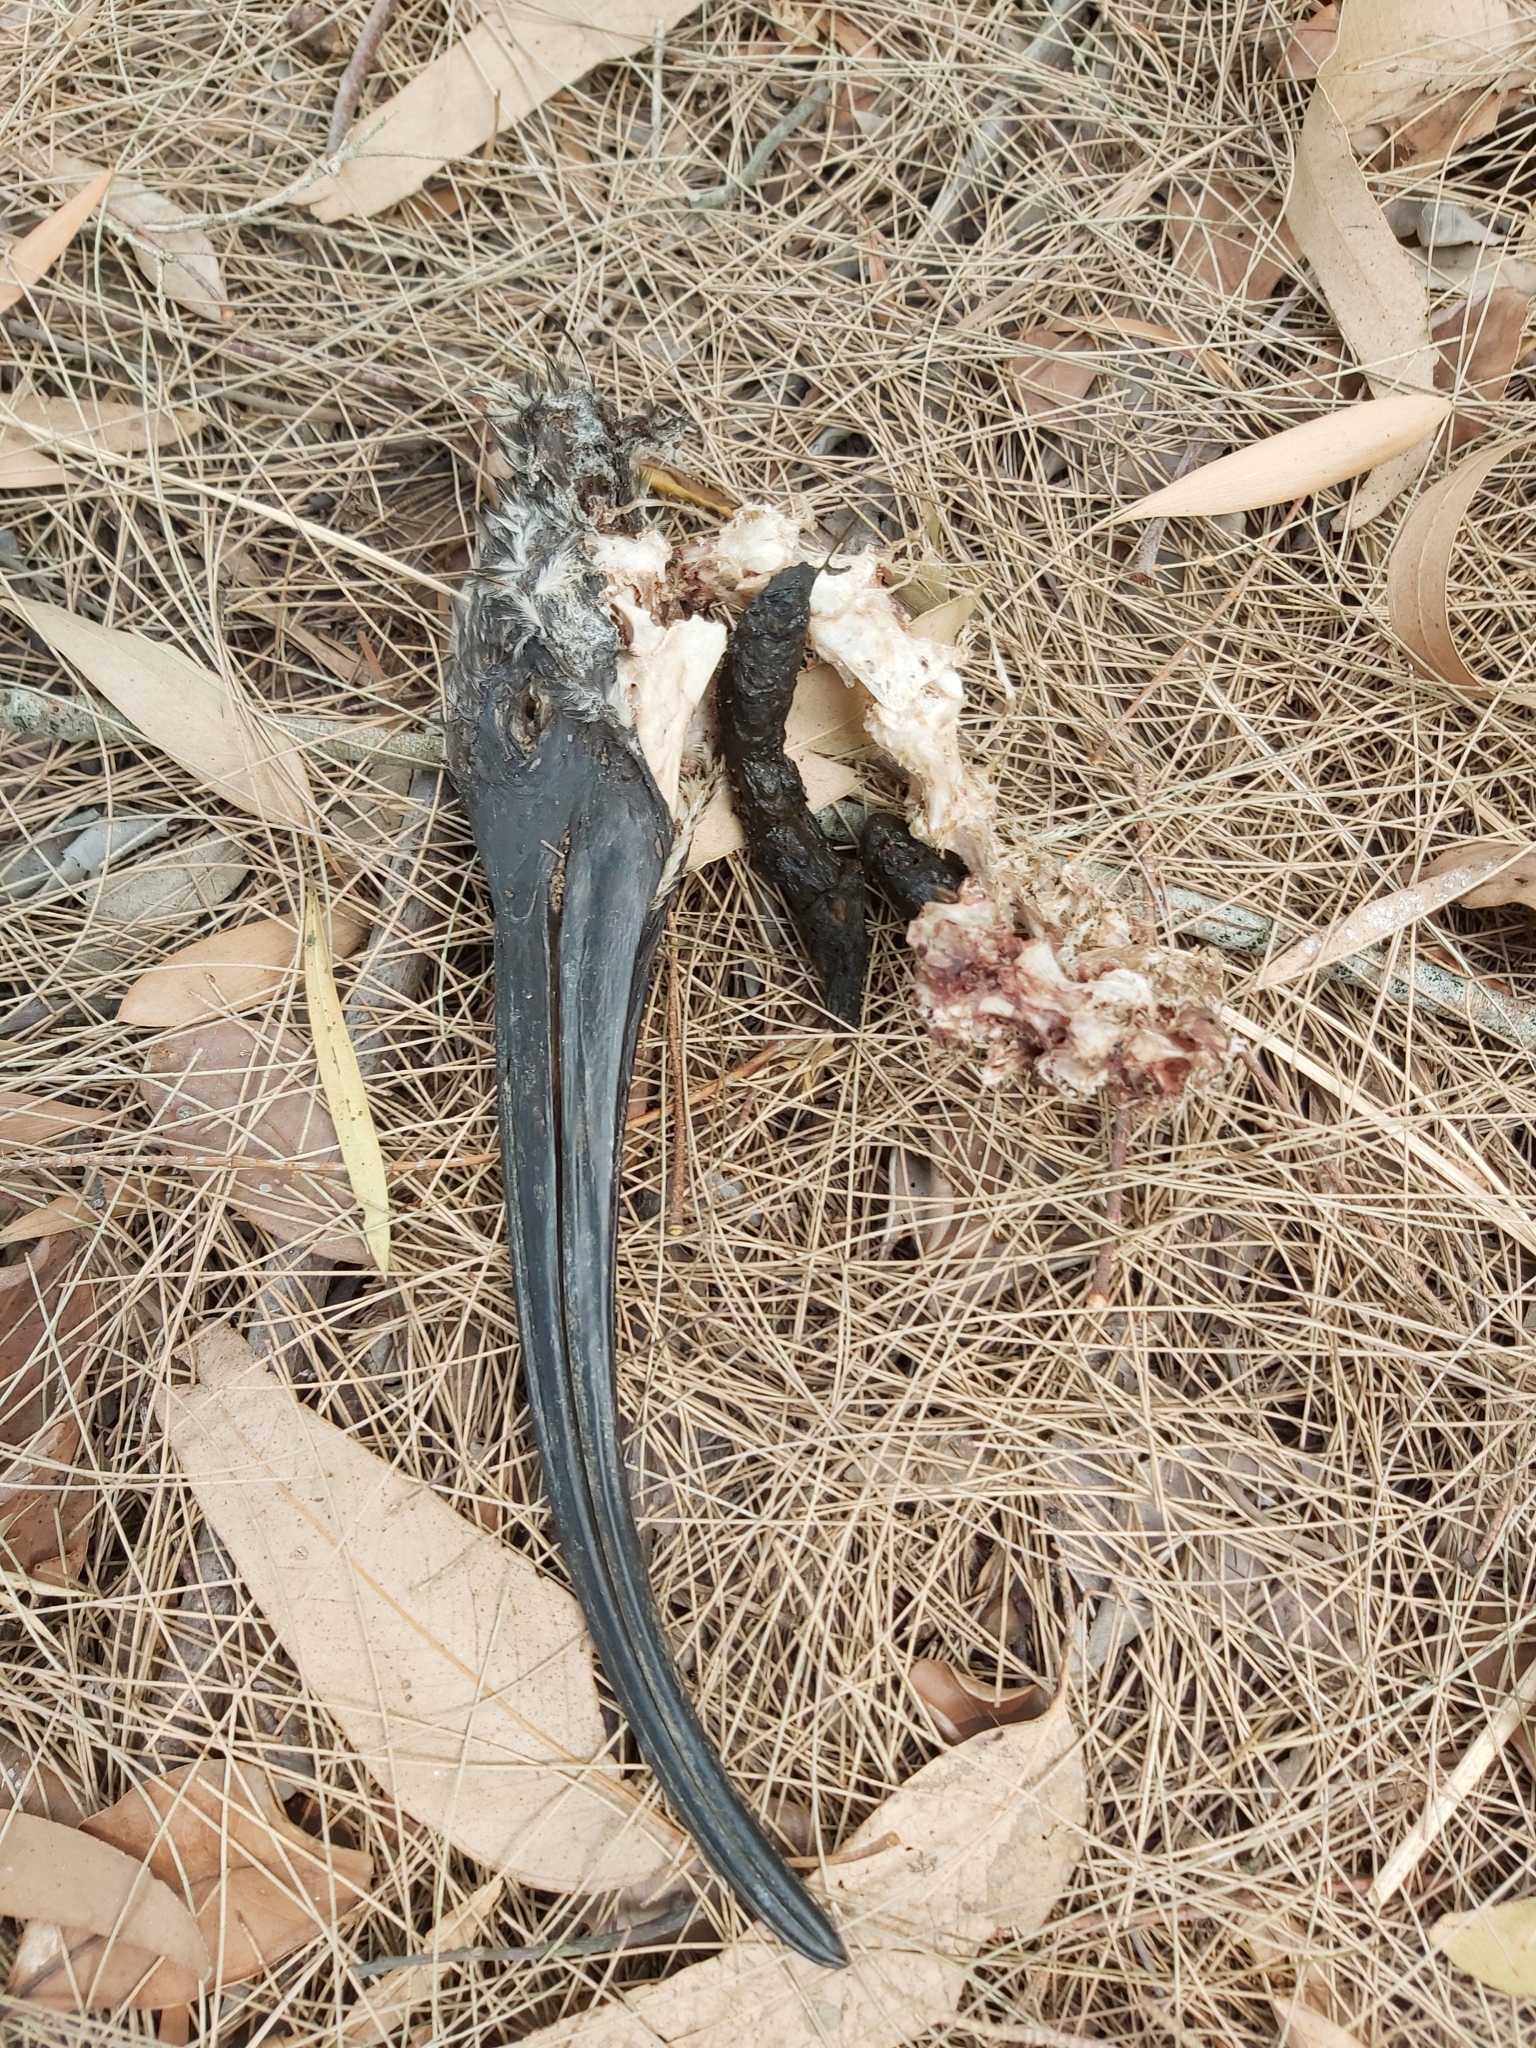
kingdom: Animalia
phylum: Chordata
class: Aves
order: Pelecaniformes
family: Threskiornithidae
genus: Threskiornis
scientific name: Threskiornis molucca
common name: Australian white ibis
